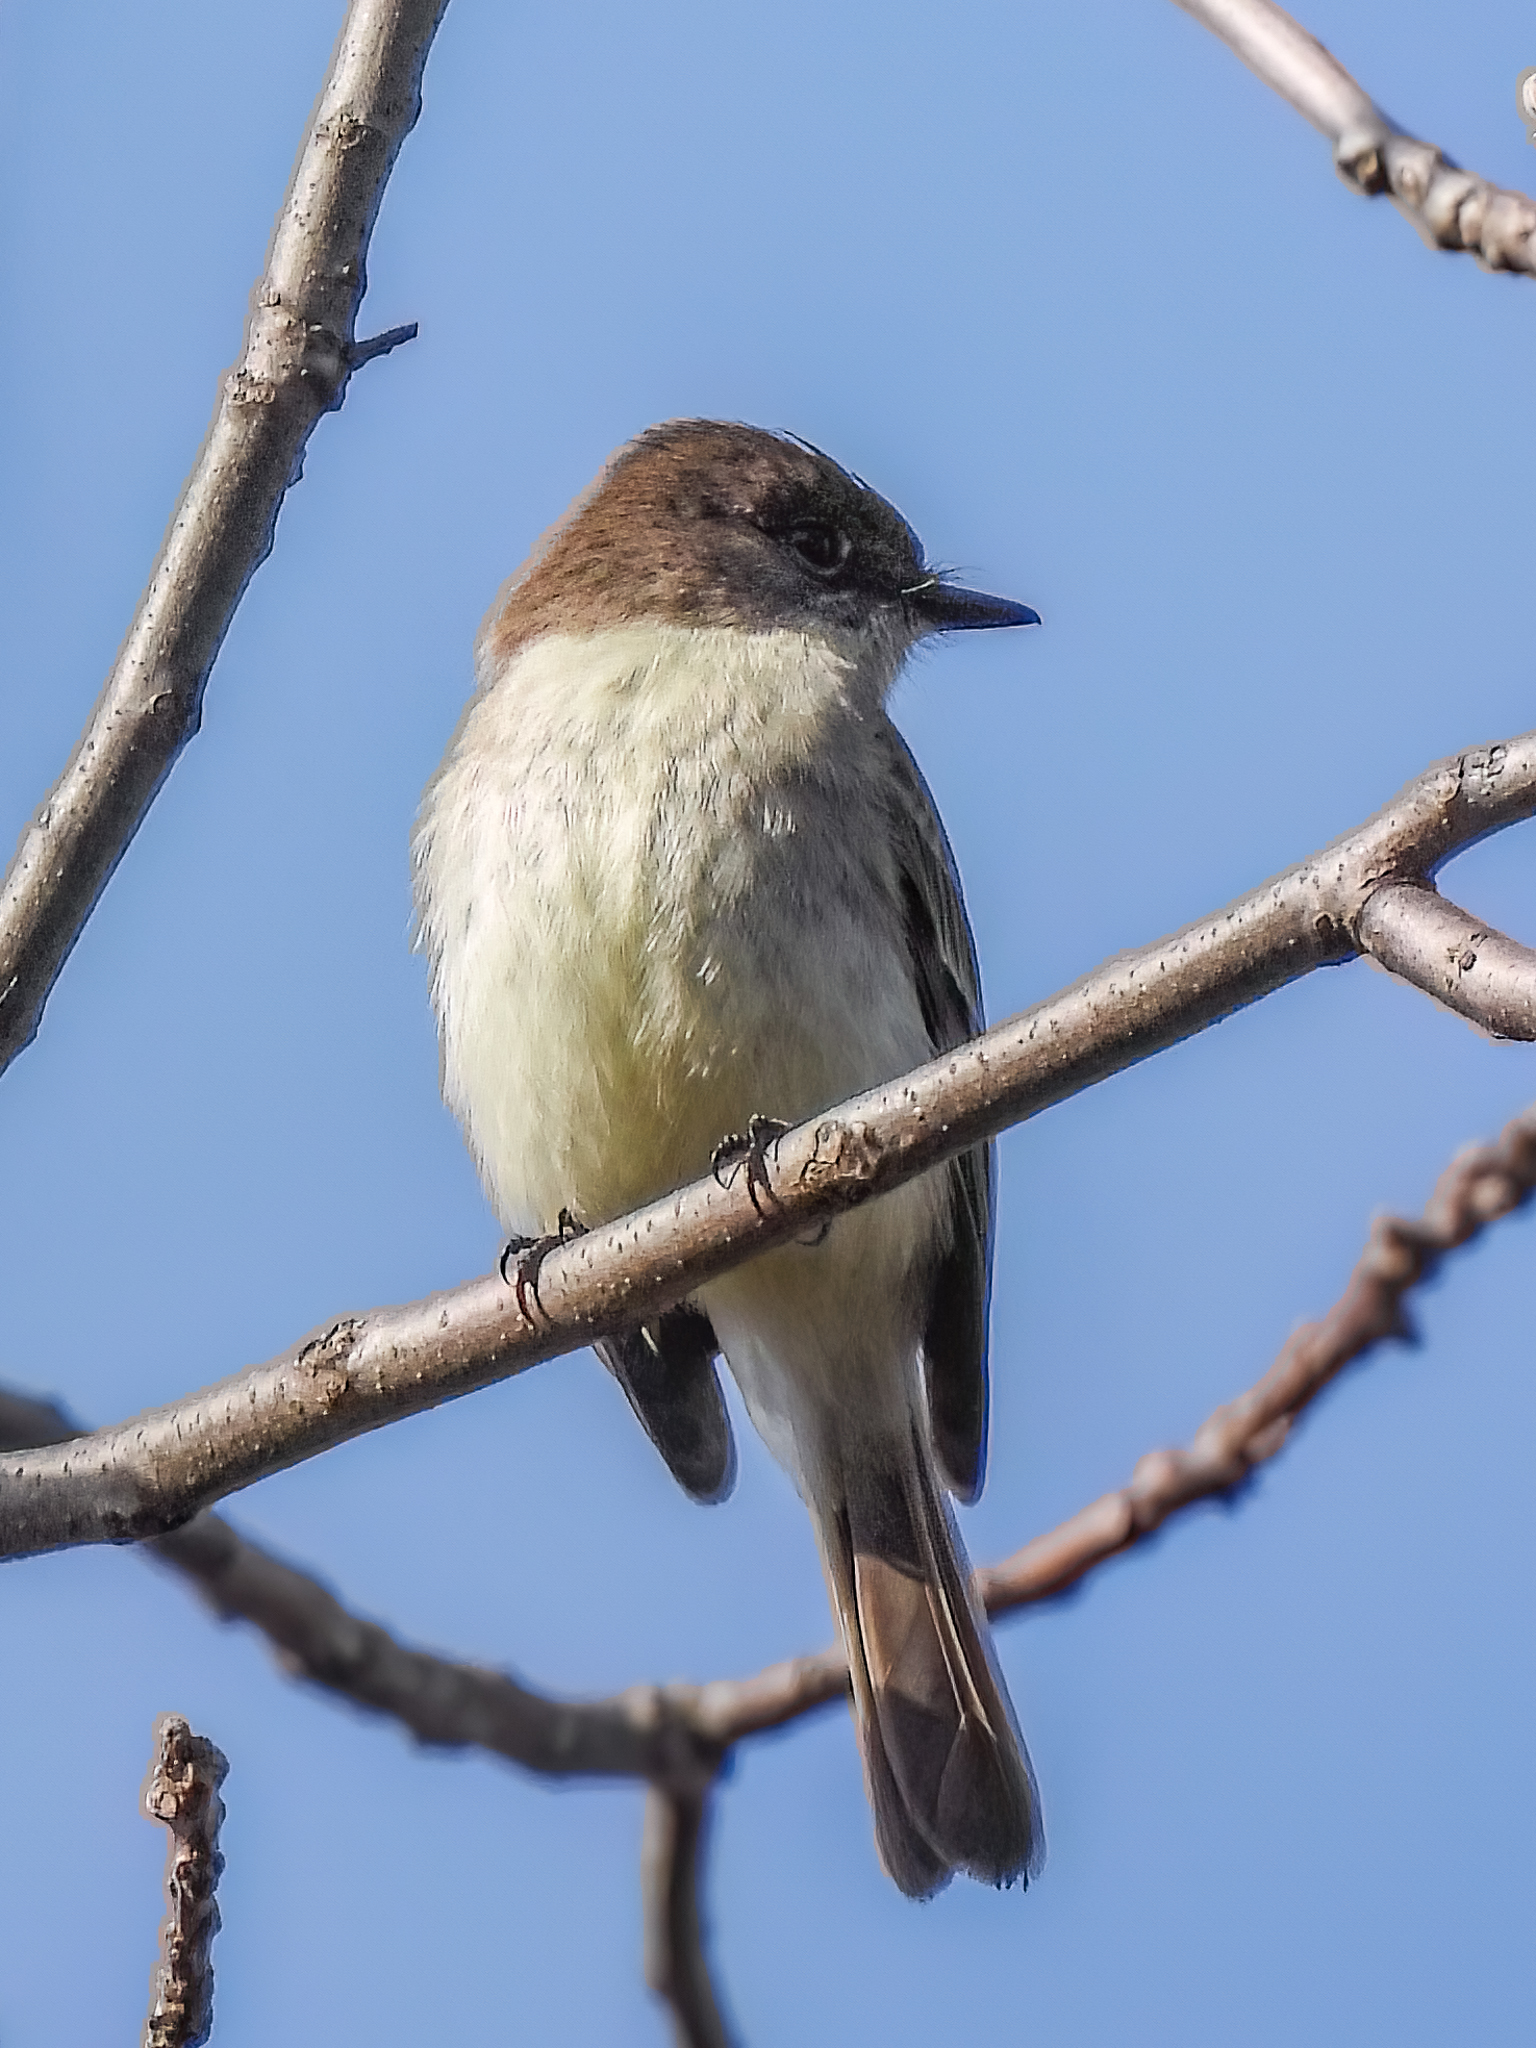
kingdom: Animalia
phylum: Chordata
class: Aves
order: Passeriformes
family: Tyrannidae
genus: Sayornis
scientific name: Sayornis phoebe
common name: Eastern phoebe
